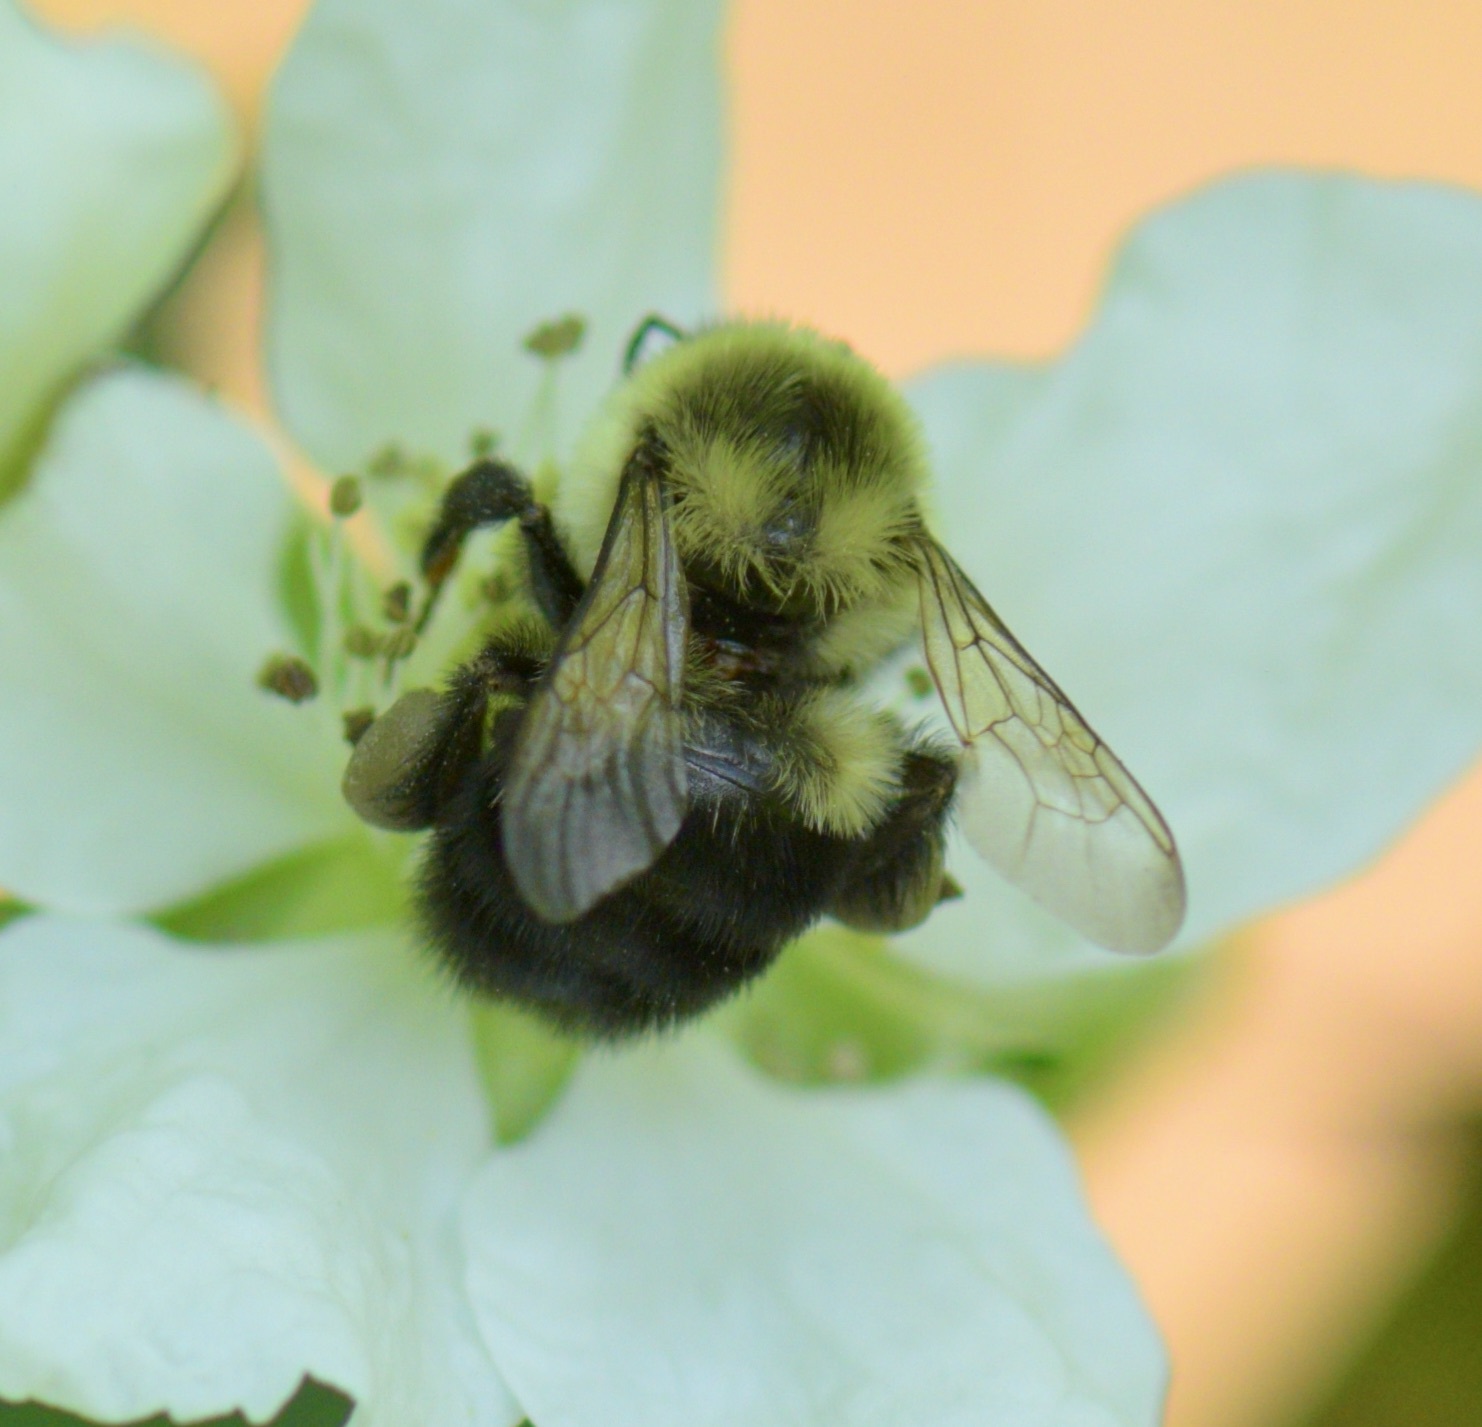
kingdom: Animalia
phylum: Arthropoda
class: Insecta
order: Hymenoptera
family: Apidae
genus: Bombus
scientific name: Bombus impatiens
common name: Common eastern bumble bee
